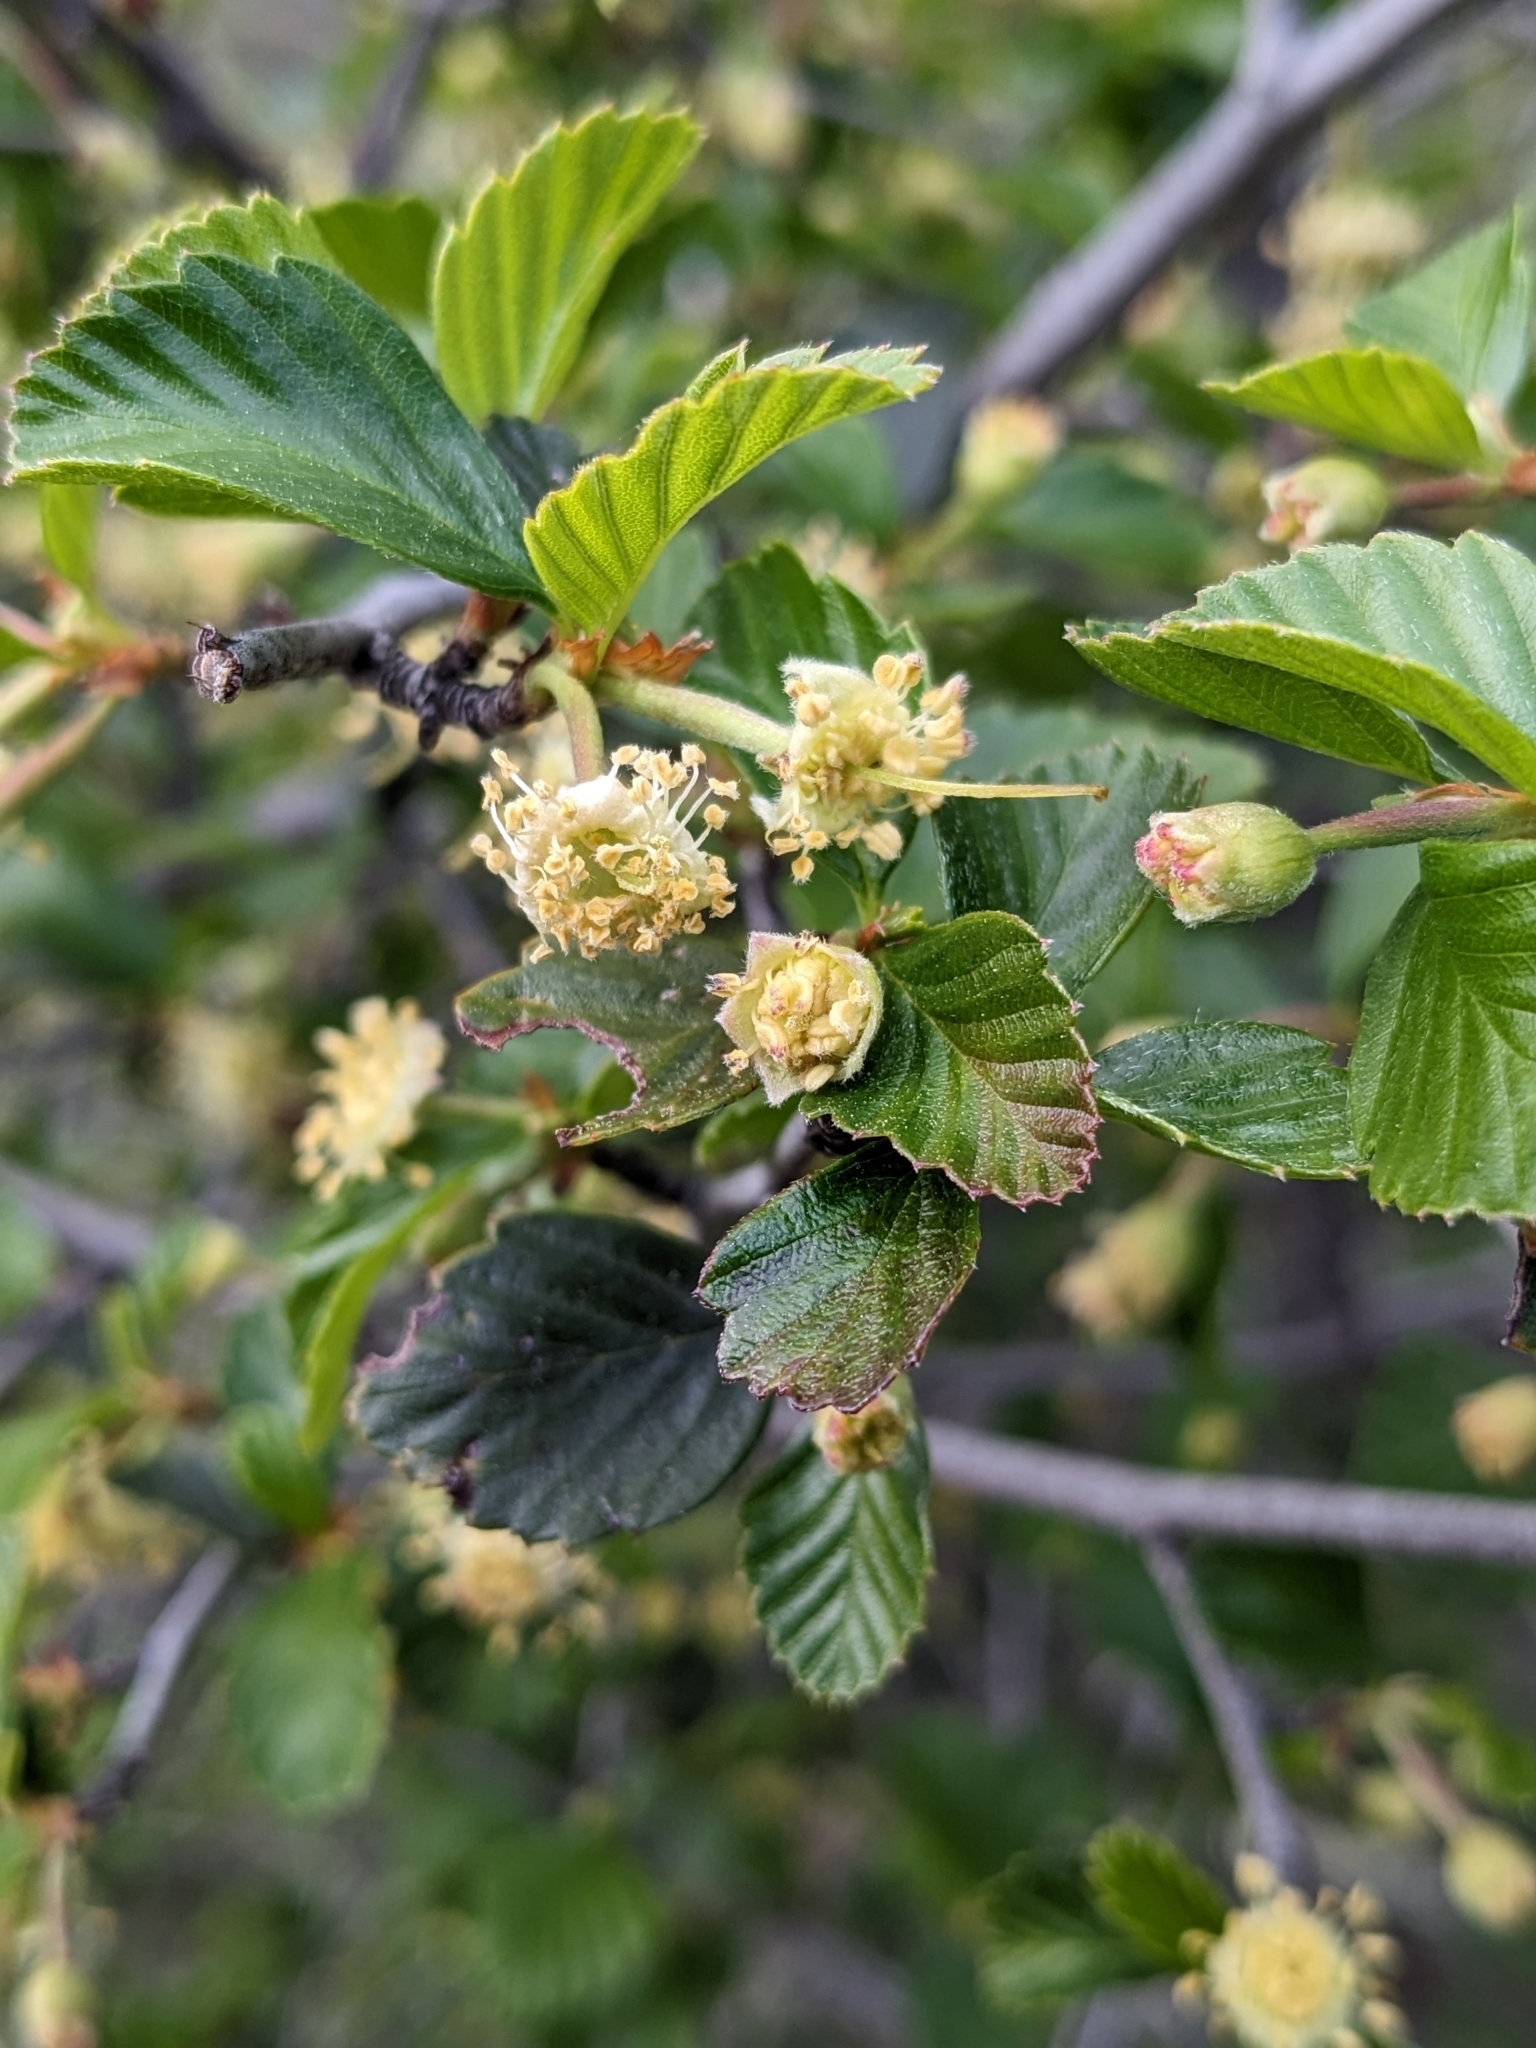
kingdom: Plantae
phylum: Tracheophyta
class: Magnoliopsida
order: Rosales
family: Rosaceae
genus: Cercocarpus
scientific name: Cercocarpus betuloides
